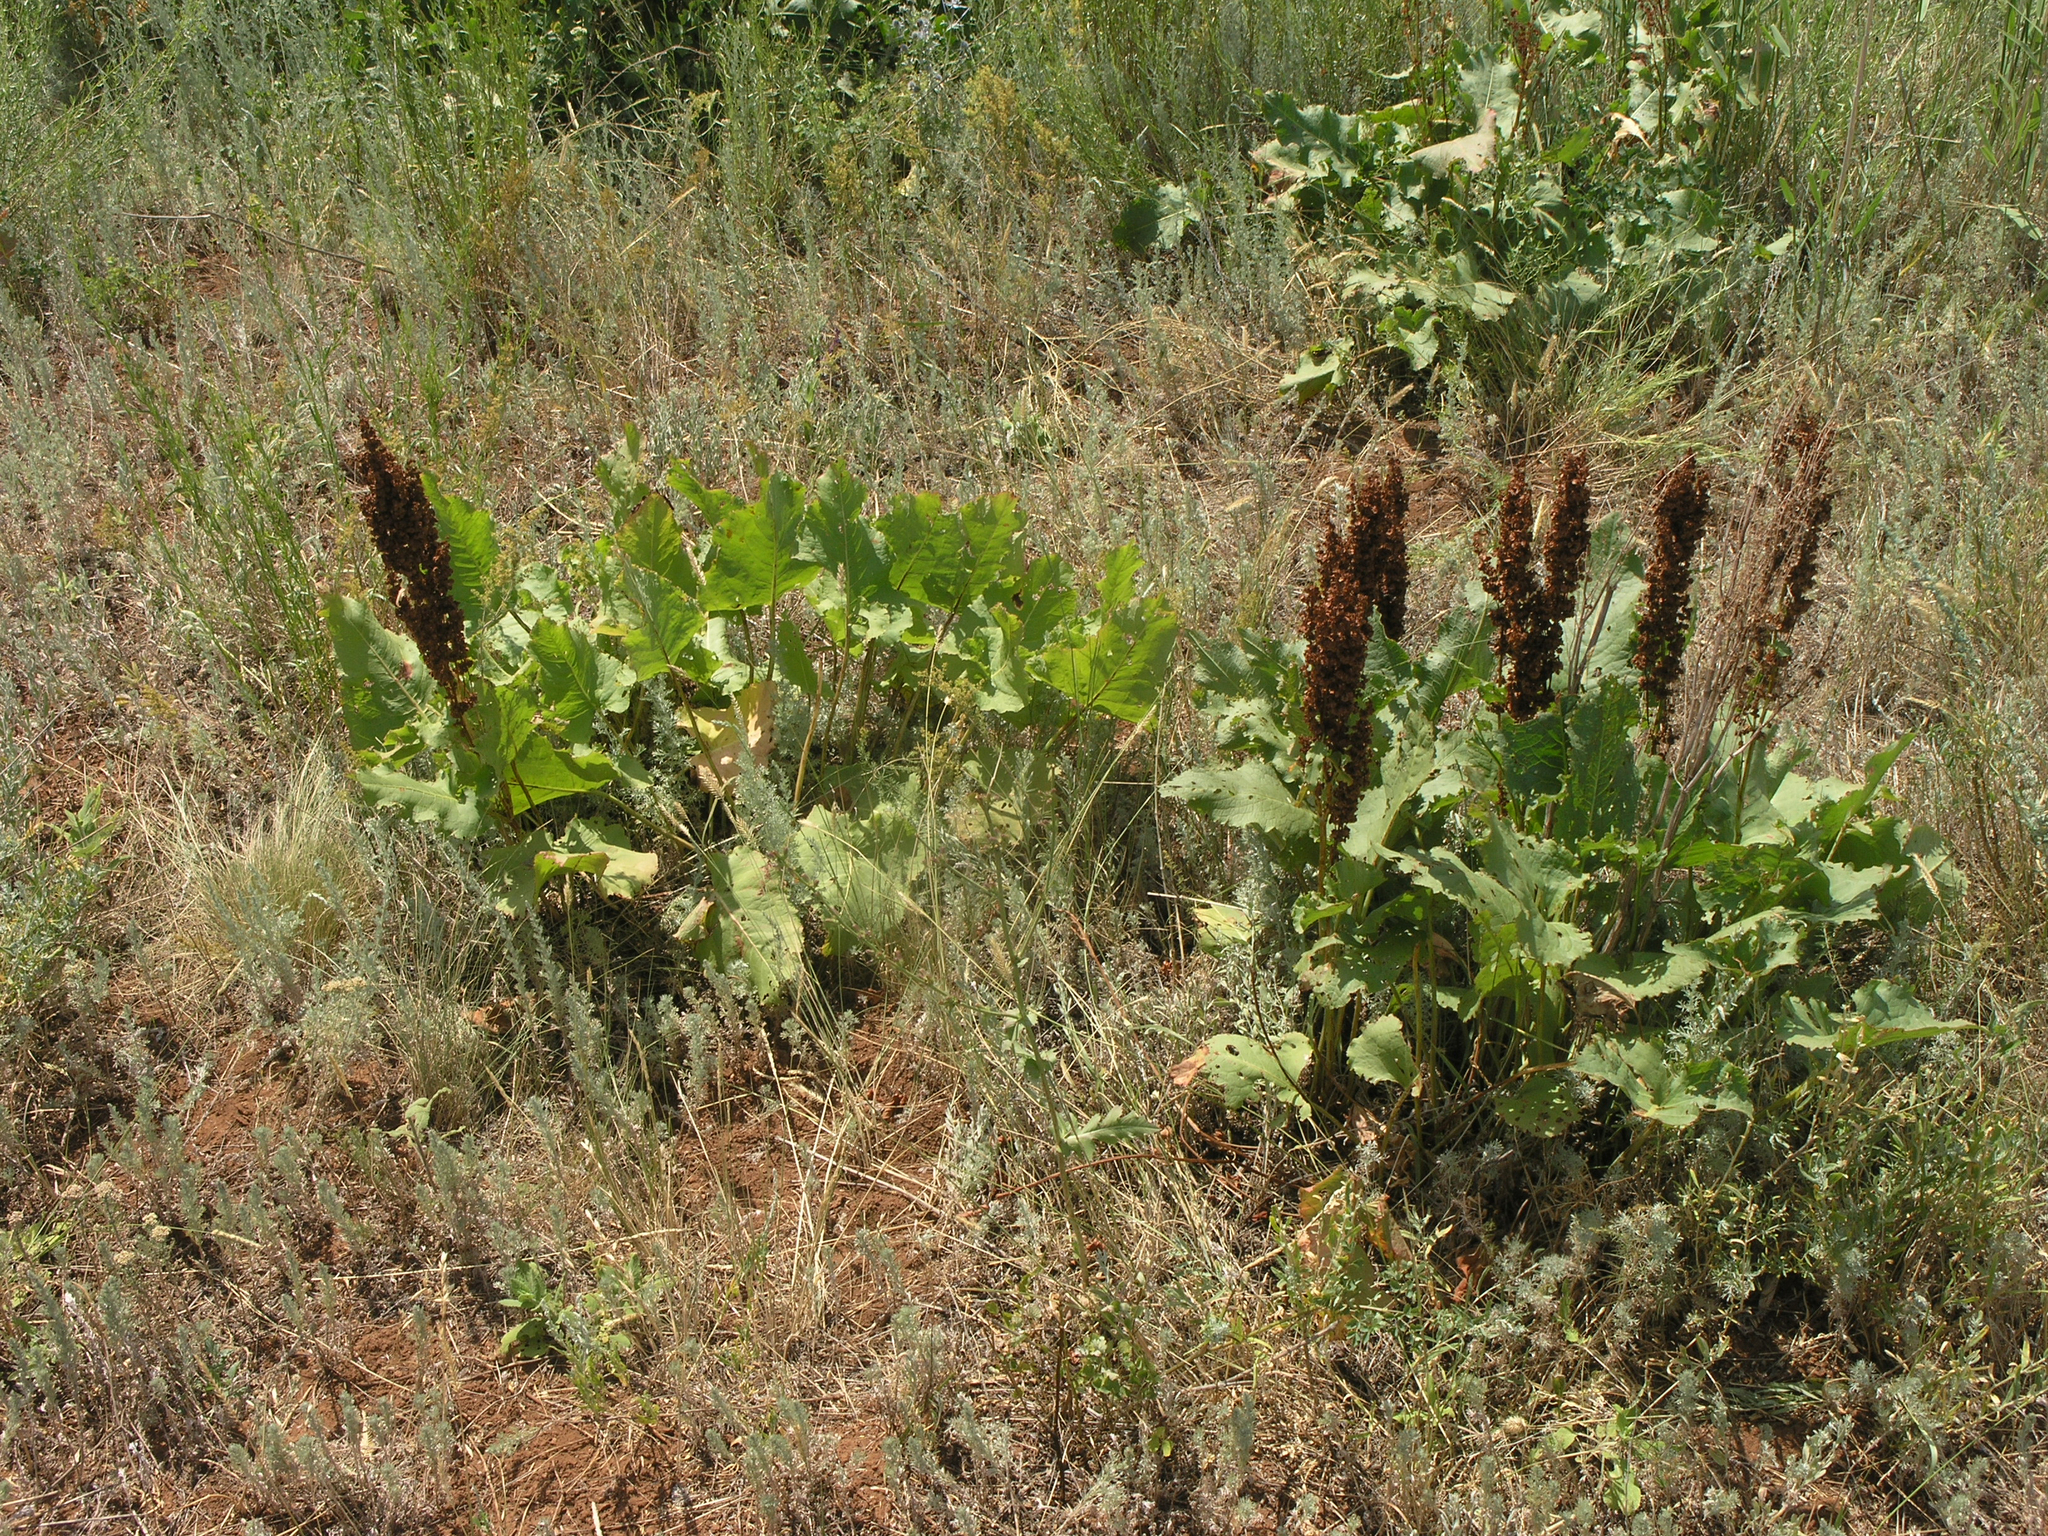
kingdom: Plantae
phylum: Tracheophyta
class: Magnoliopsida
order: Caryophyllales
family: Polygonaceae
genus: Rumex
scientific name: Rumex confertus
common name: Russian dock
